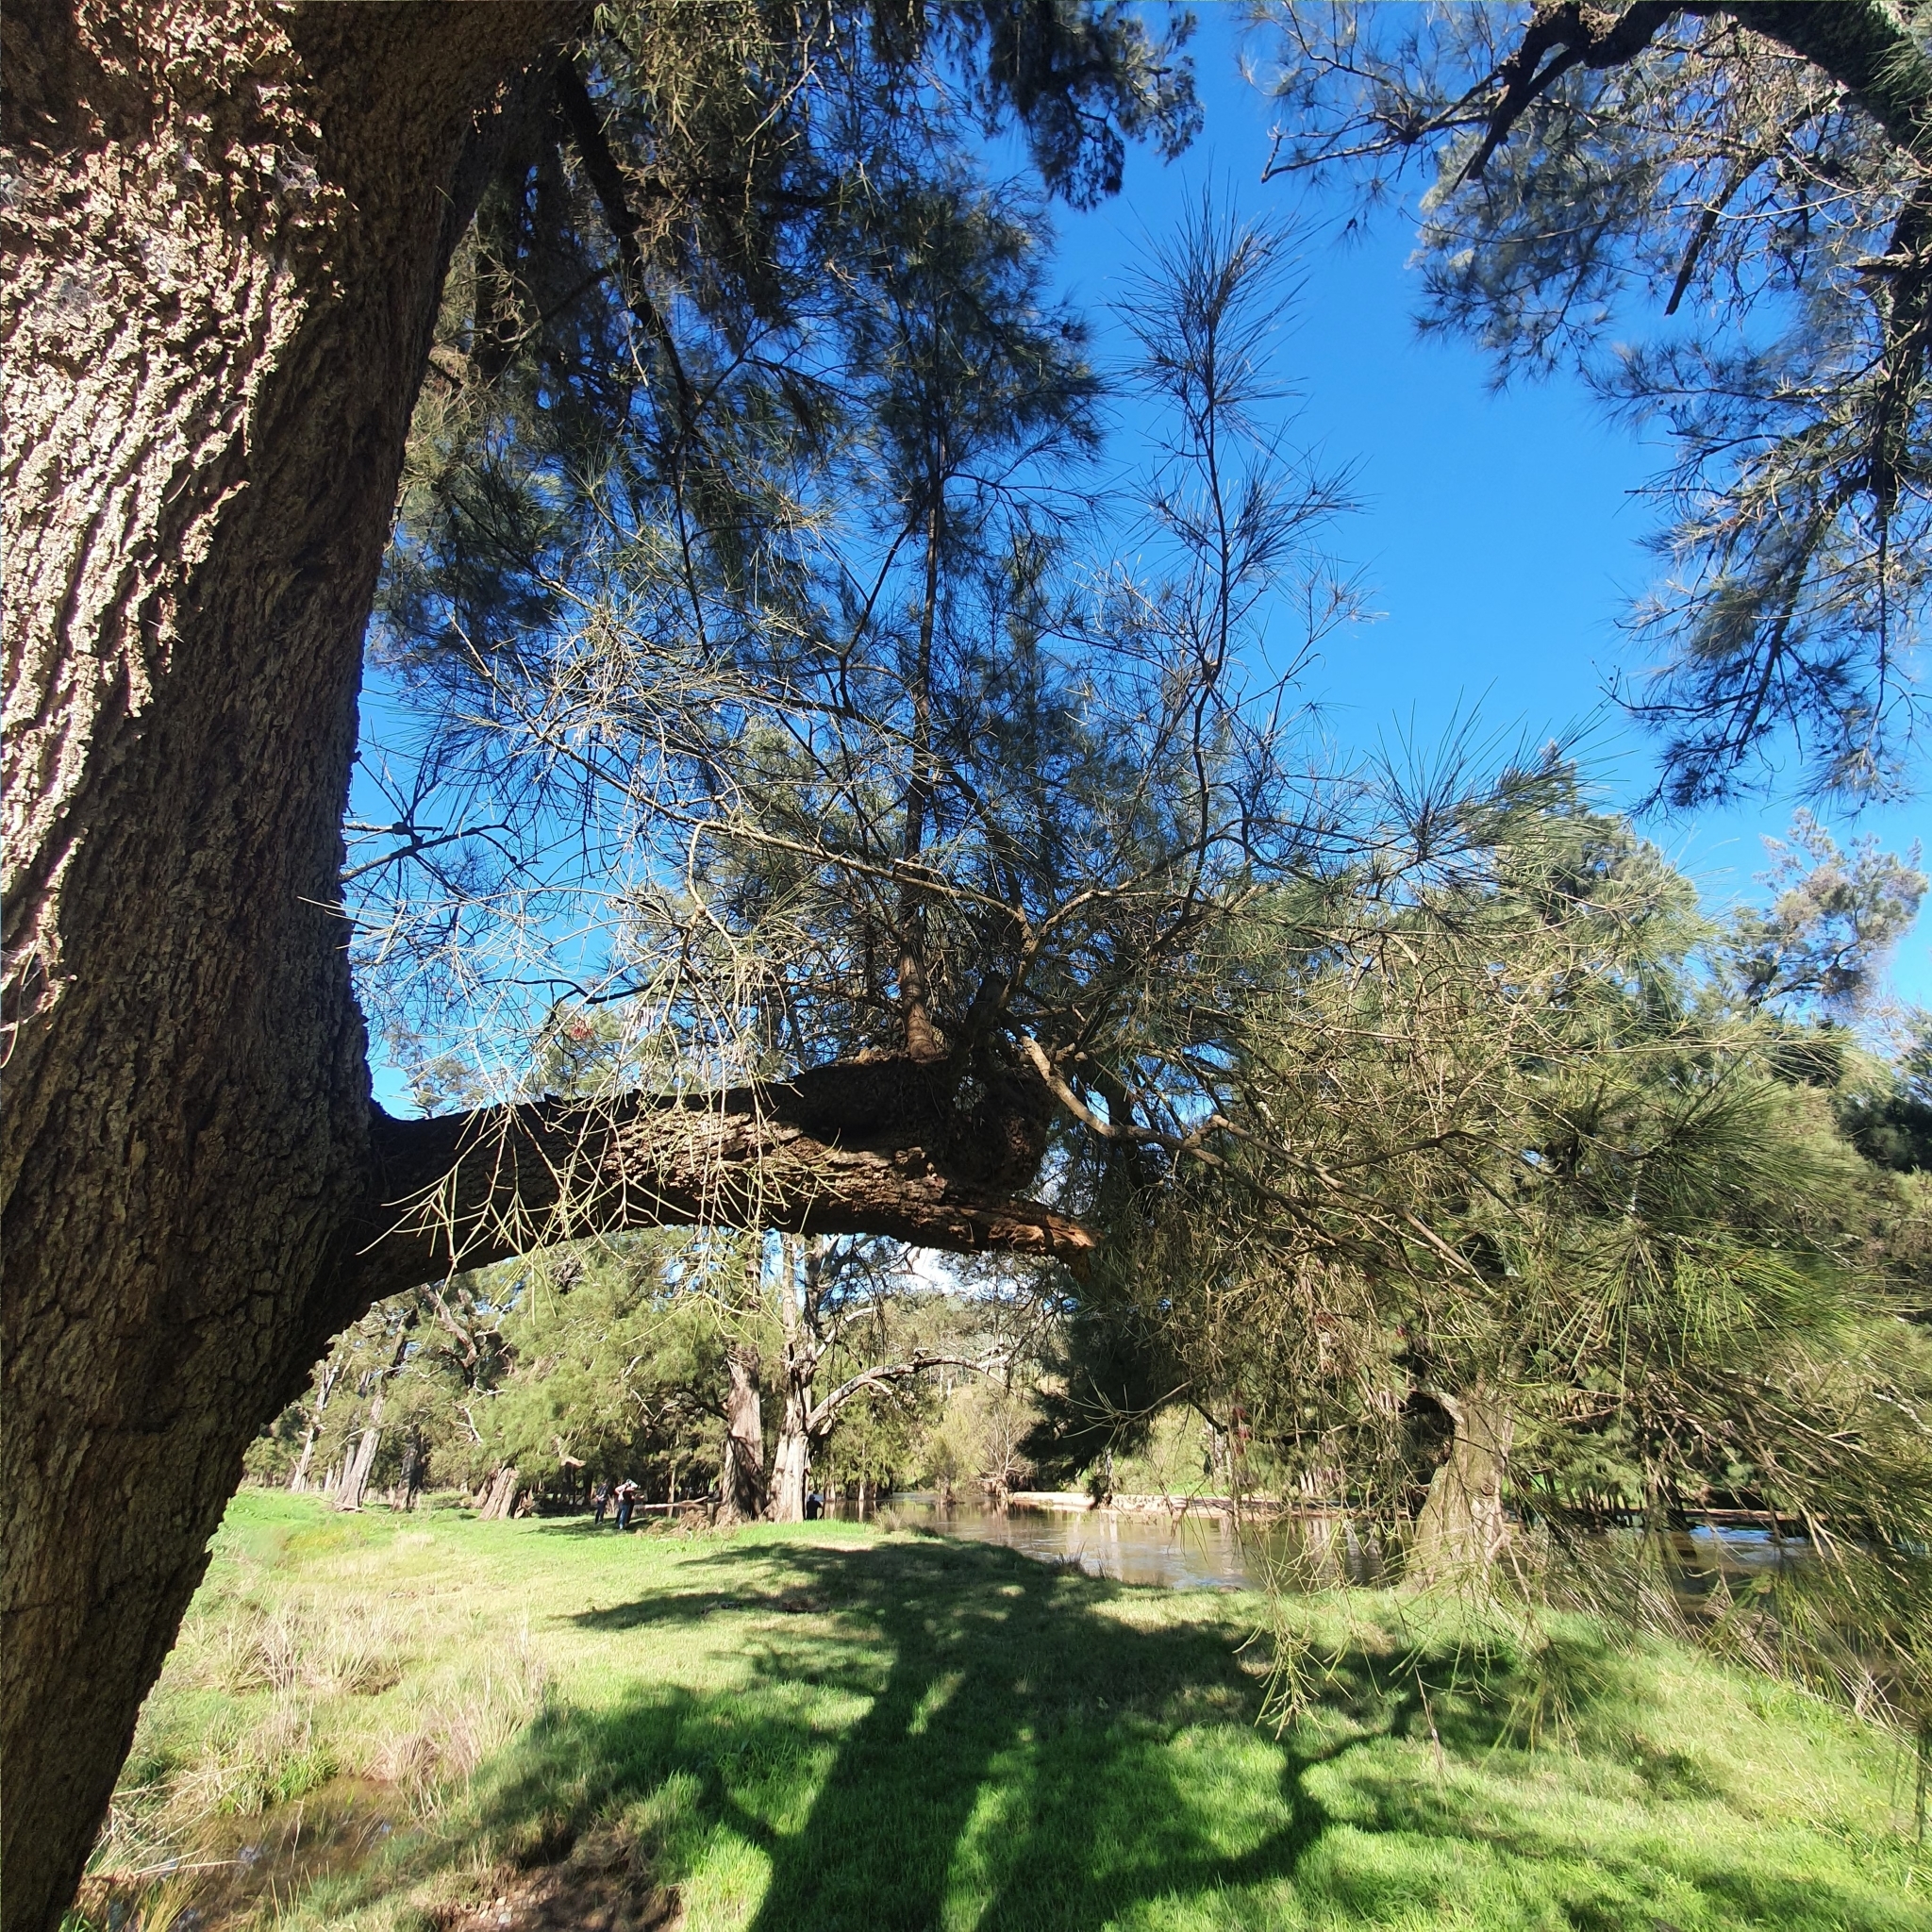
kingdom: Plantae
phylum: Tracheophyta
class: Magnoliopsida
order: Santalales
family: Loranthaceae
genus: Amyema
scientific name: Amyema cambagei
